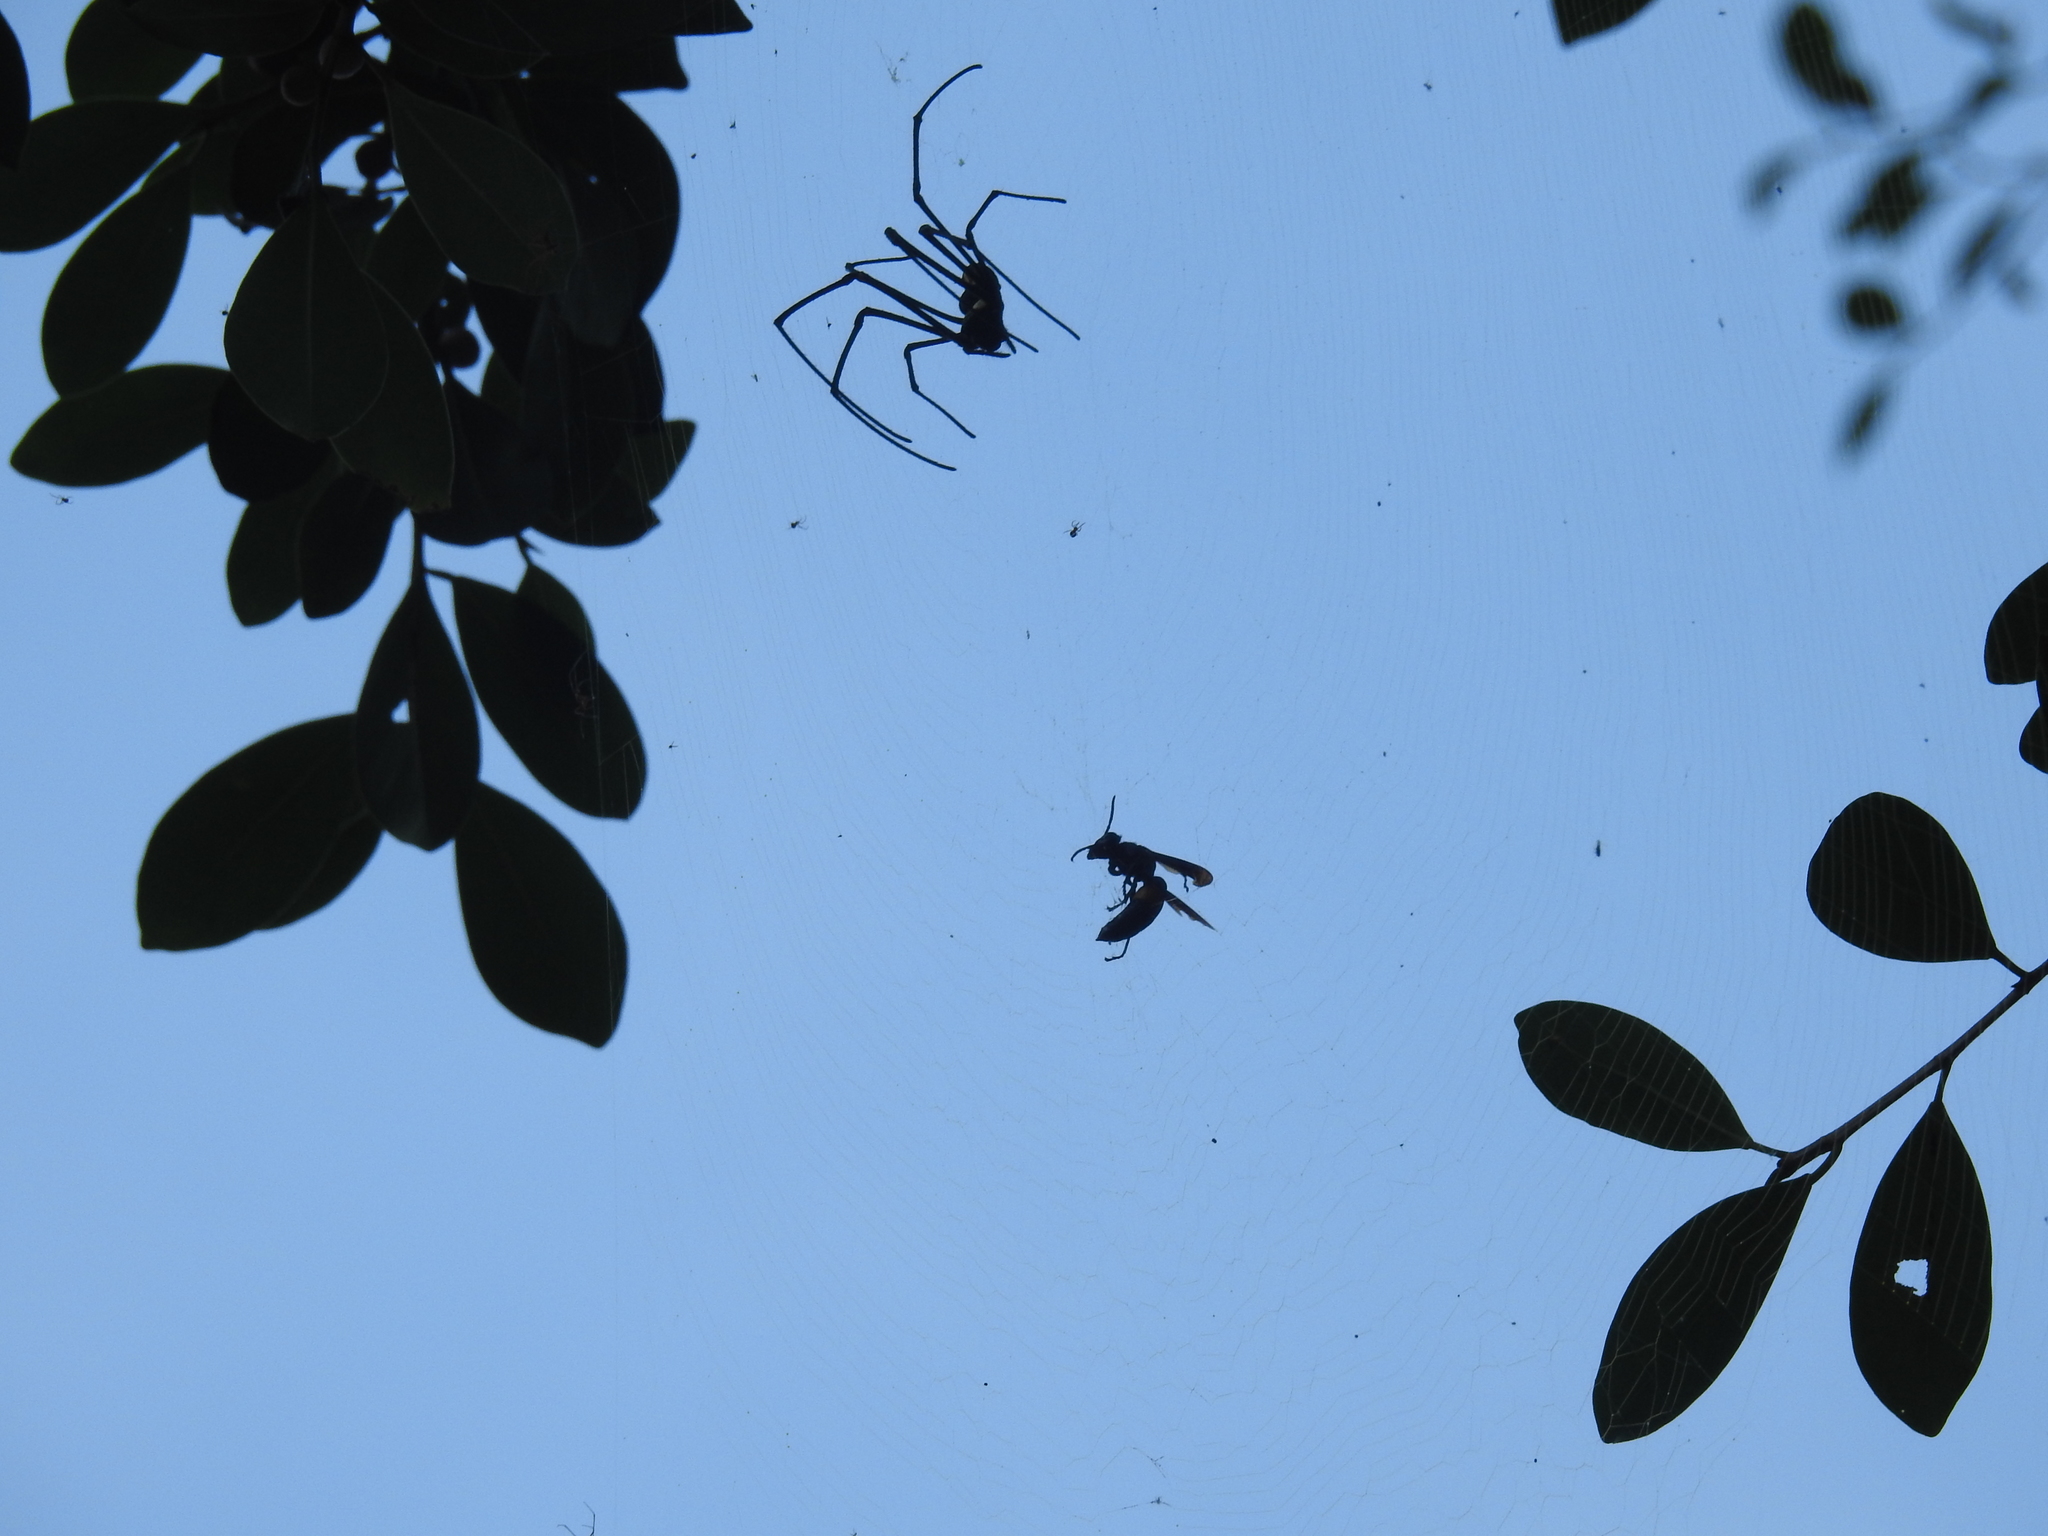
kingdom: Animalia
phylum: Arthropoda
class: Arachnida
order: Araneae
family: Araneidae
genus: Nephila
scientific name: Nephila pilipes
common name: Giant golden orb weaver
